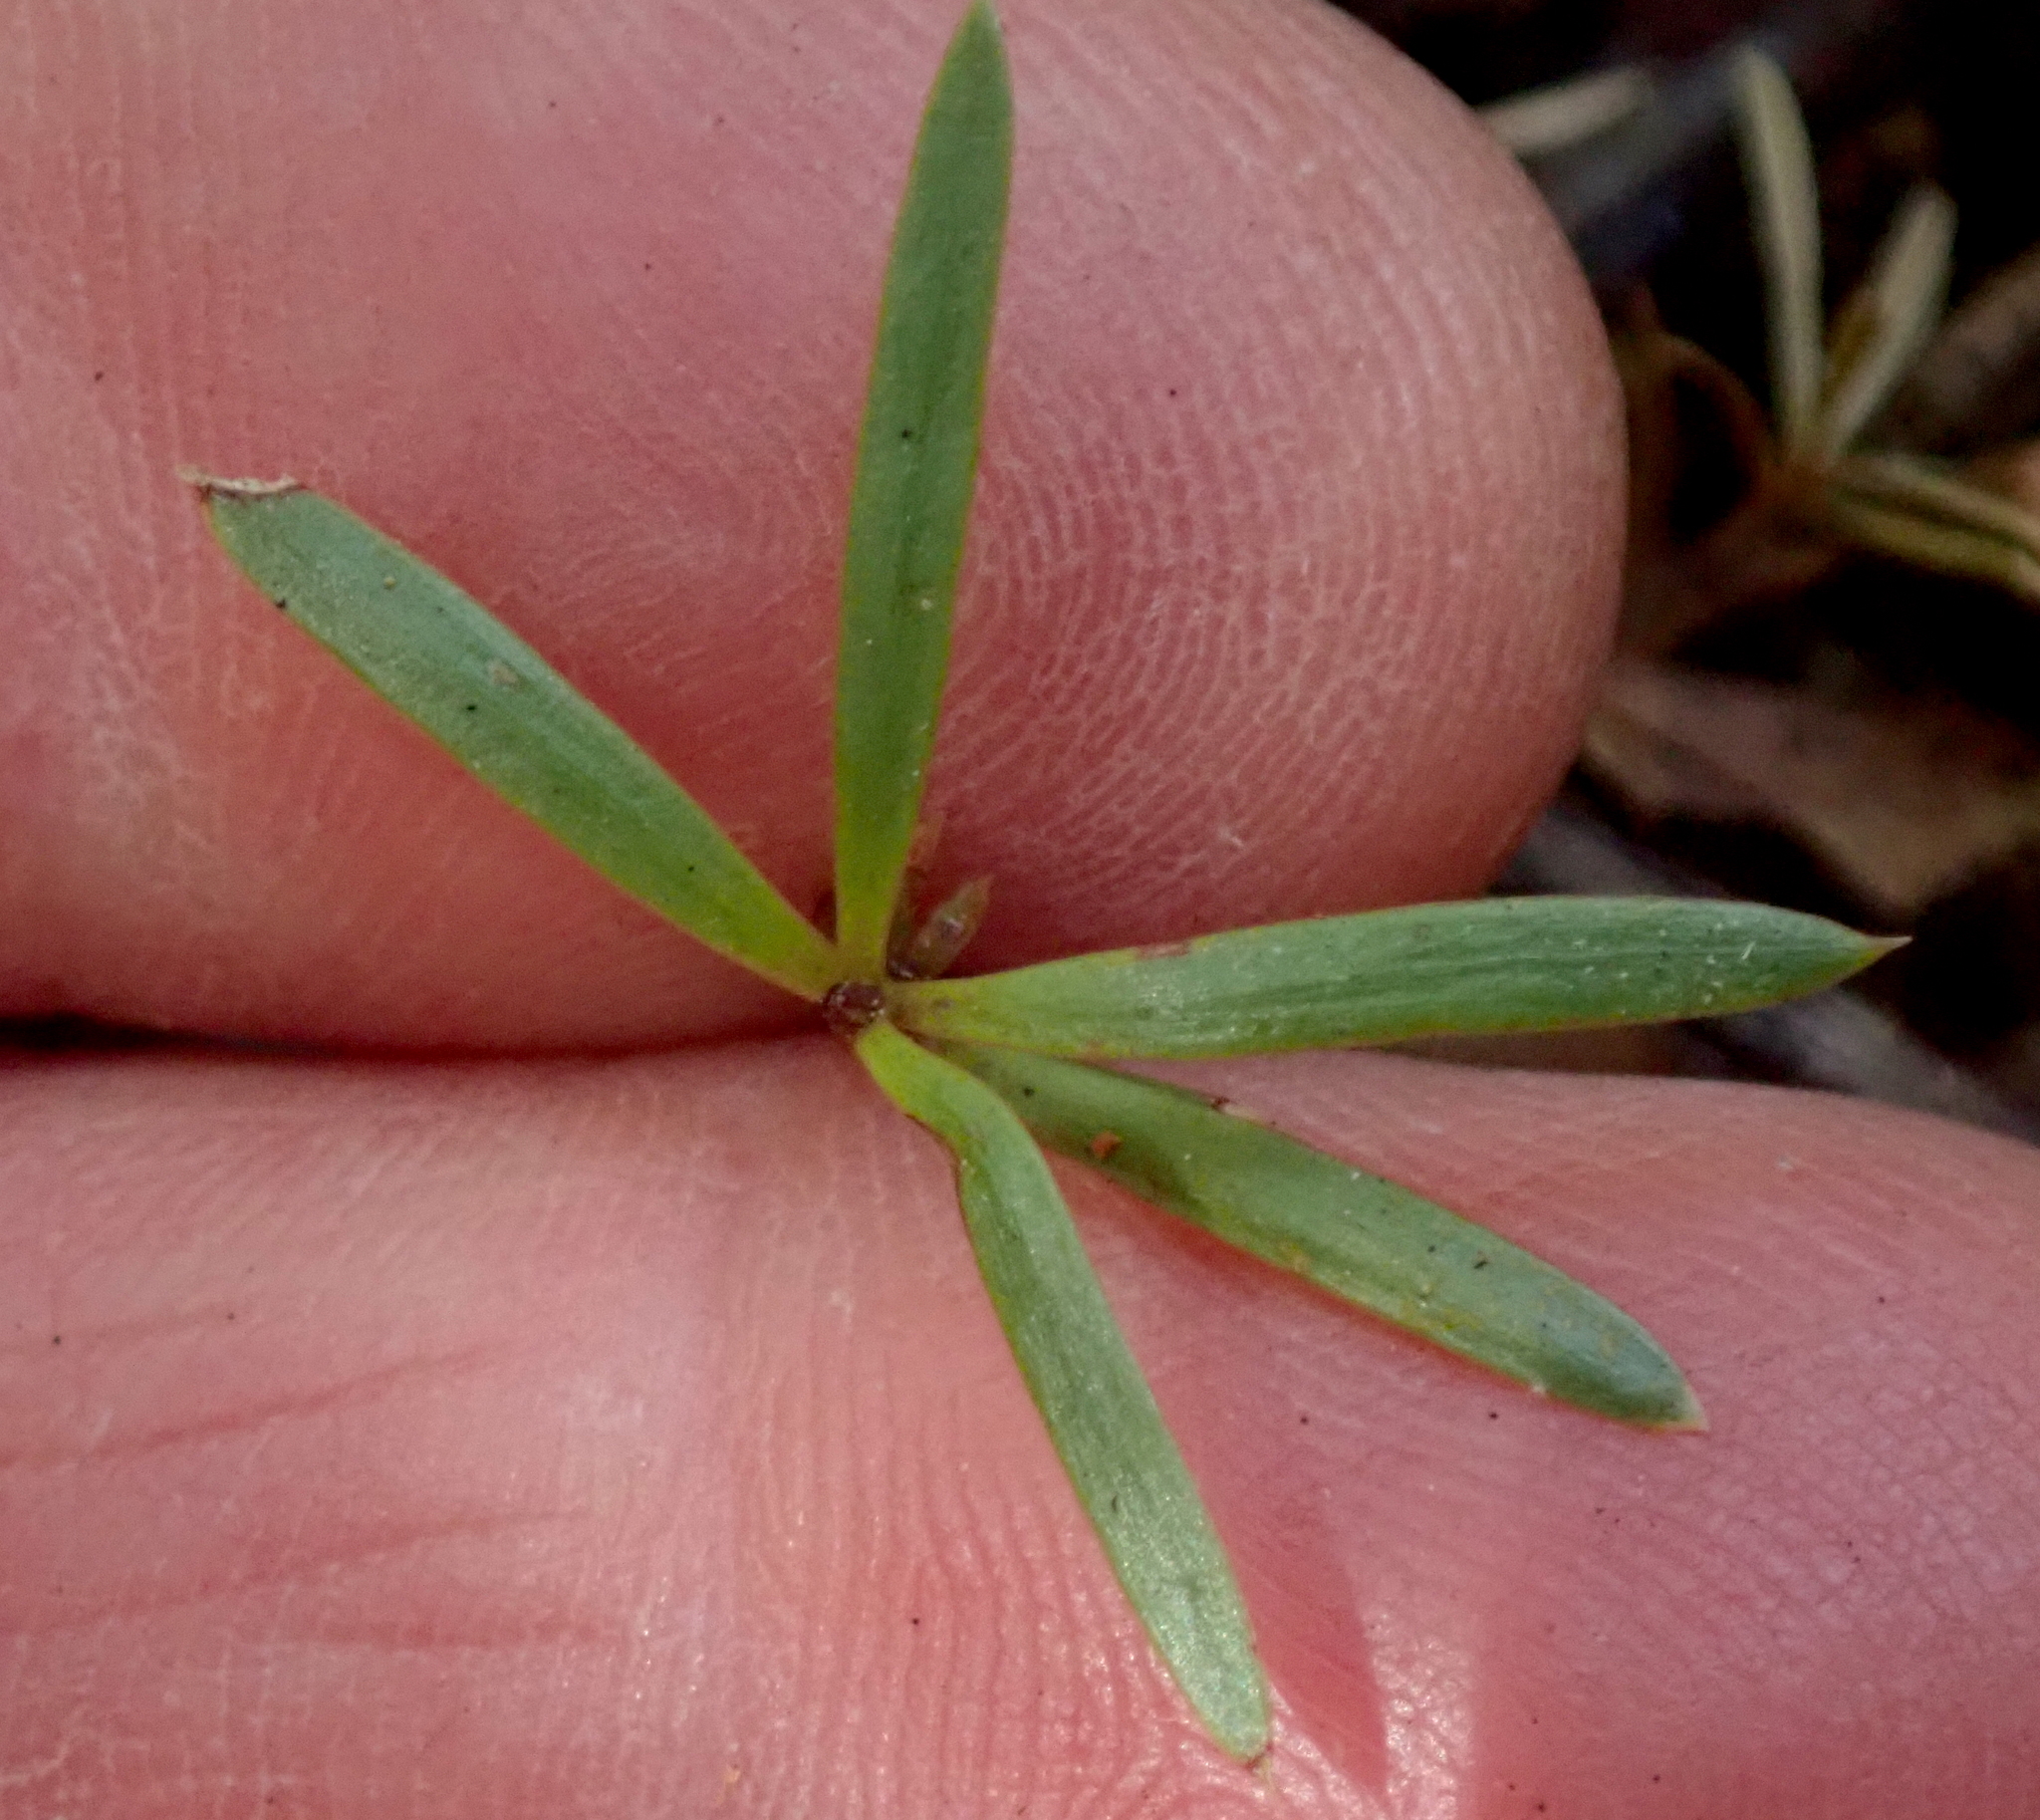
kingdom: Plantae
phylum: Tracheophyta
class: Magnoliopsida
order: Ericales
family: Ericaceae
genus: Leucopogon
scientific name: Leucopogon fasciculatus
